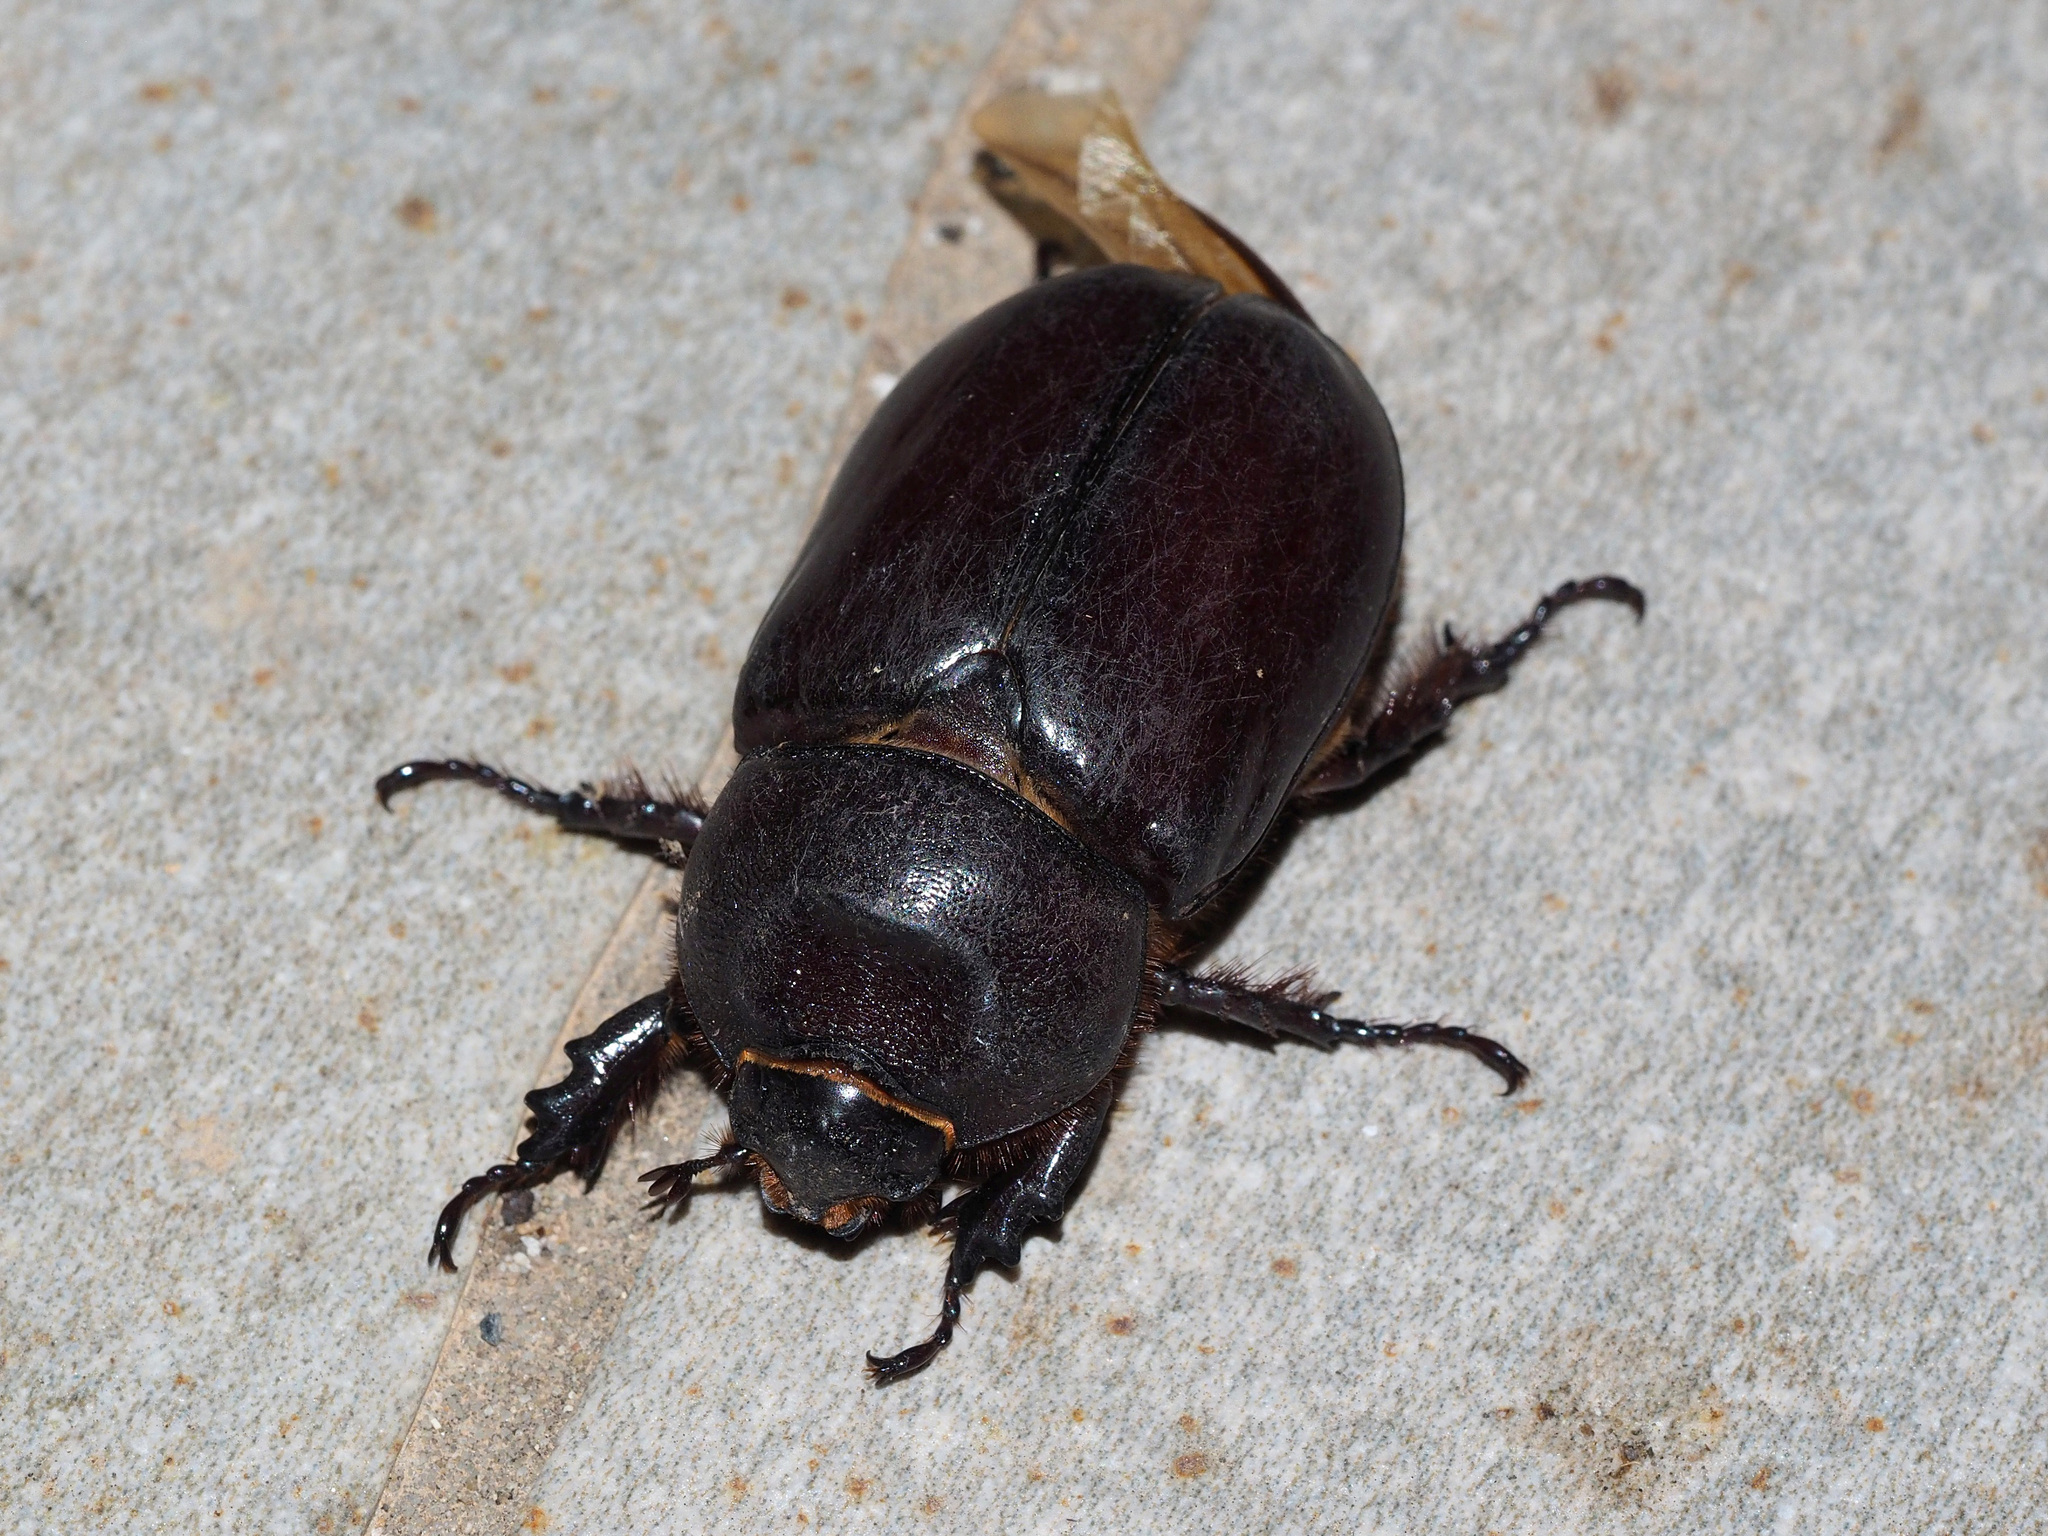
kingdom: Animalia
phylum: Arthropoda
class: Insecta
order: Coleoptera
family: Scarabaeidae
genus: Oryctes
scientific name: Oryctes nasicornis
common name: European rhinoceros beetle
